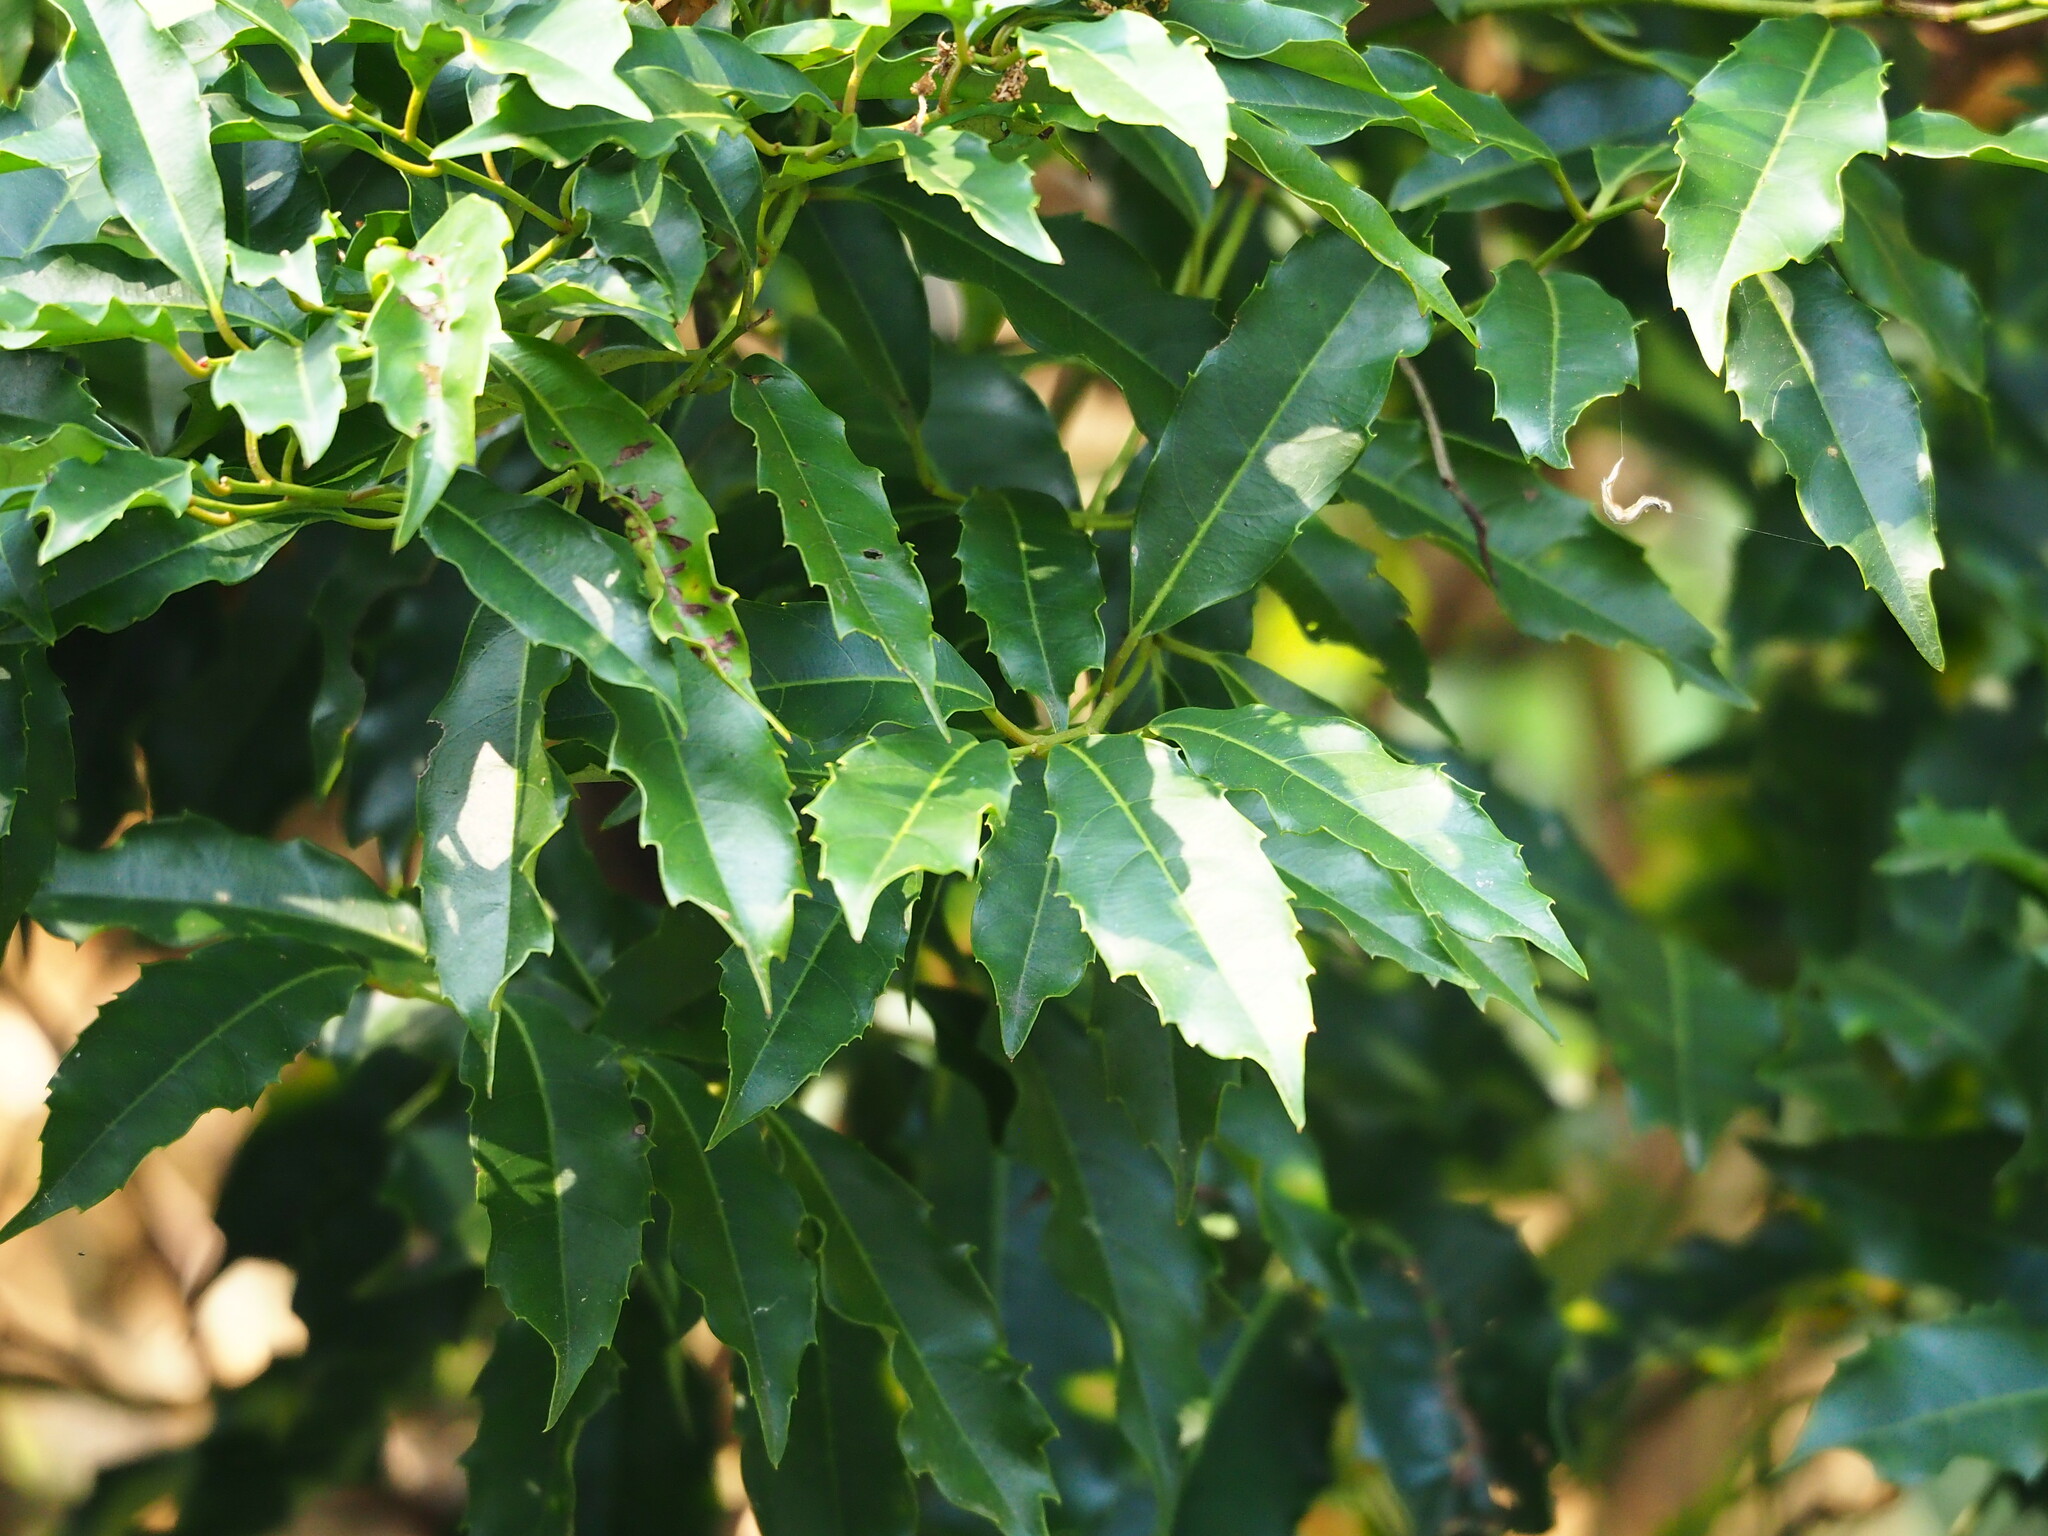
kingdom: Plantae
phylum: Tracheophyta
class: Magnoliopsida
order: Saxifragales
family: Iteaceae
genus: Itea
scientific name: Itea oldhamii
